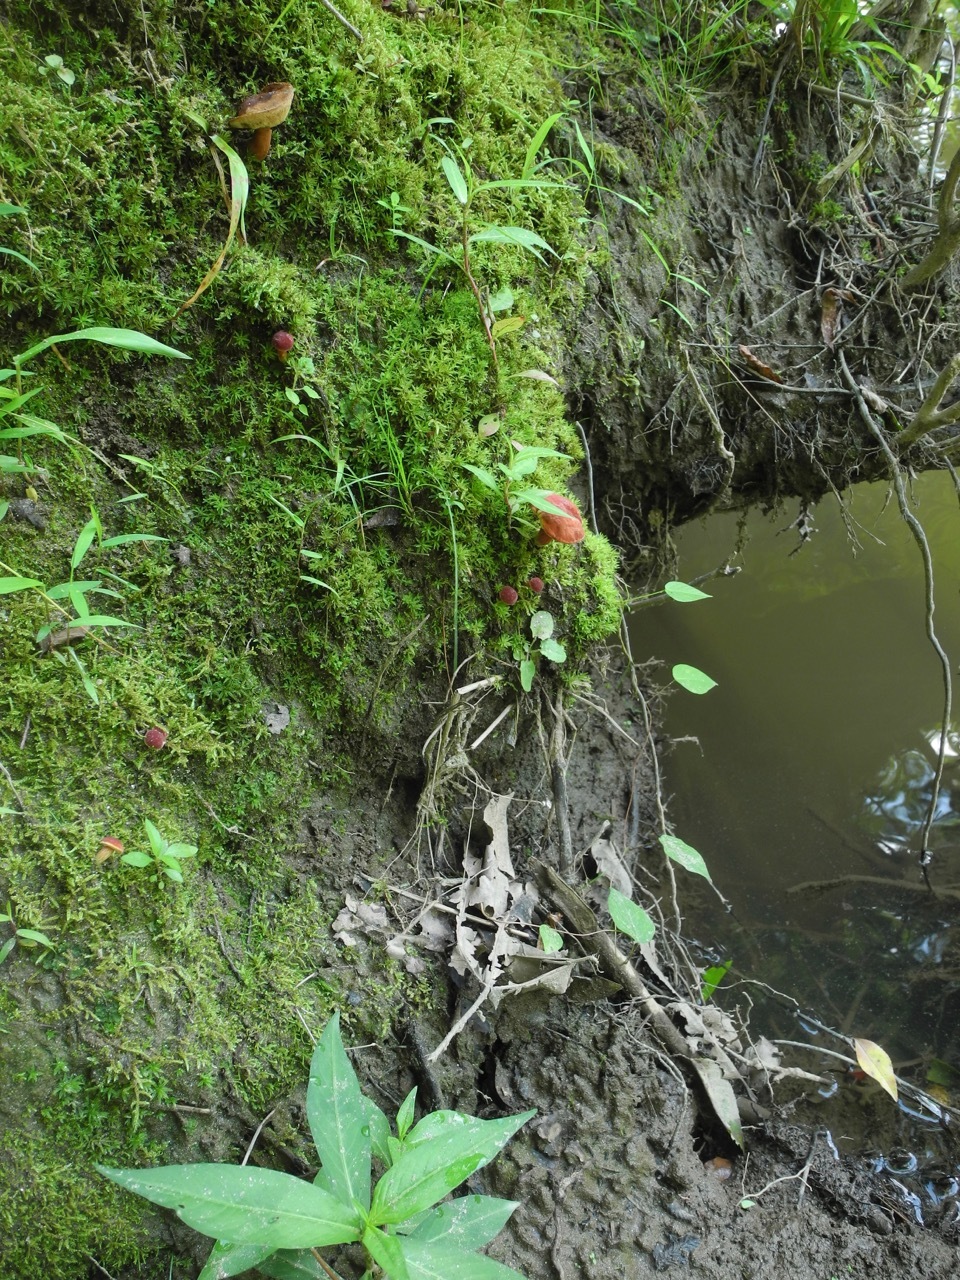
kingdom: Fungi
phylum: Basidiomycota
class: Agaricomycetes
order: Boletales
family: Boletaceae
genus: Hortiboletus
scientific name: Hortiboletus rubellus
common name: Ruby bolete
